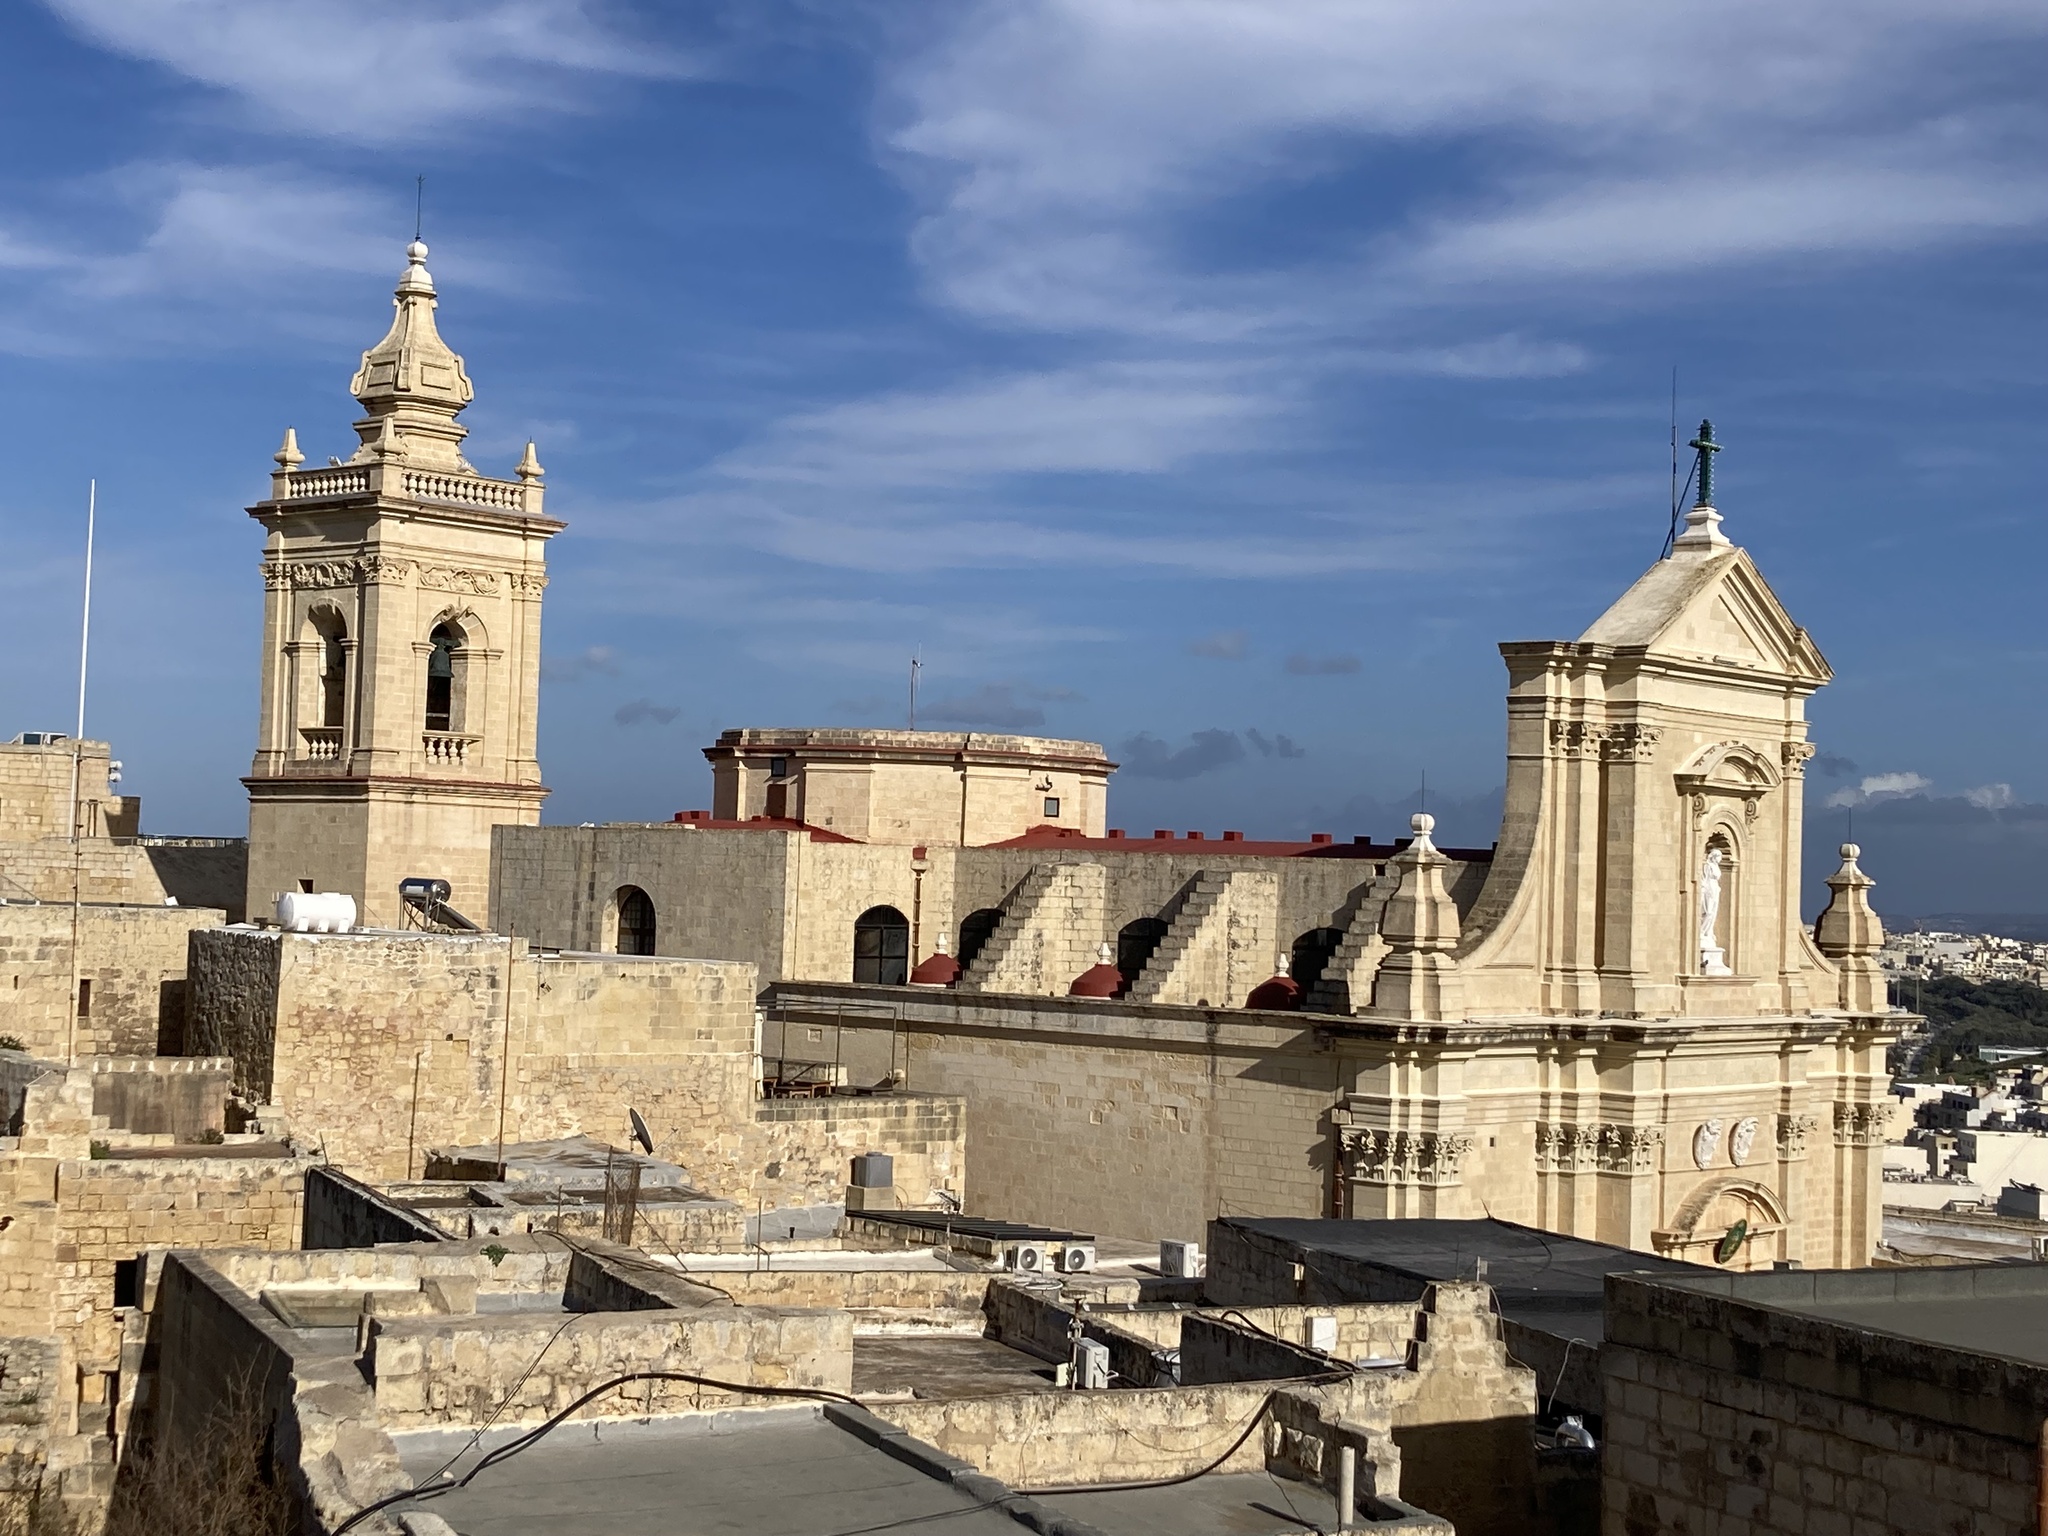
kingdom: Plantae
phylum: Tracheophyta
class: Magnoliopsida
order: Lamiales
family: Plantaginaceae
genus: Linaria
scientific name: Linaria pseudolaxiflora
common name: Maltese toadflax
